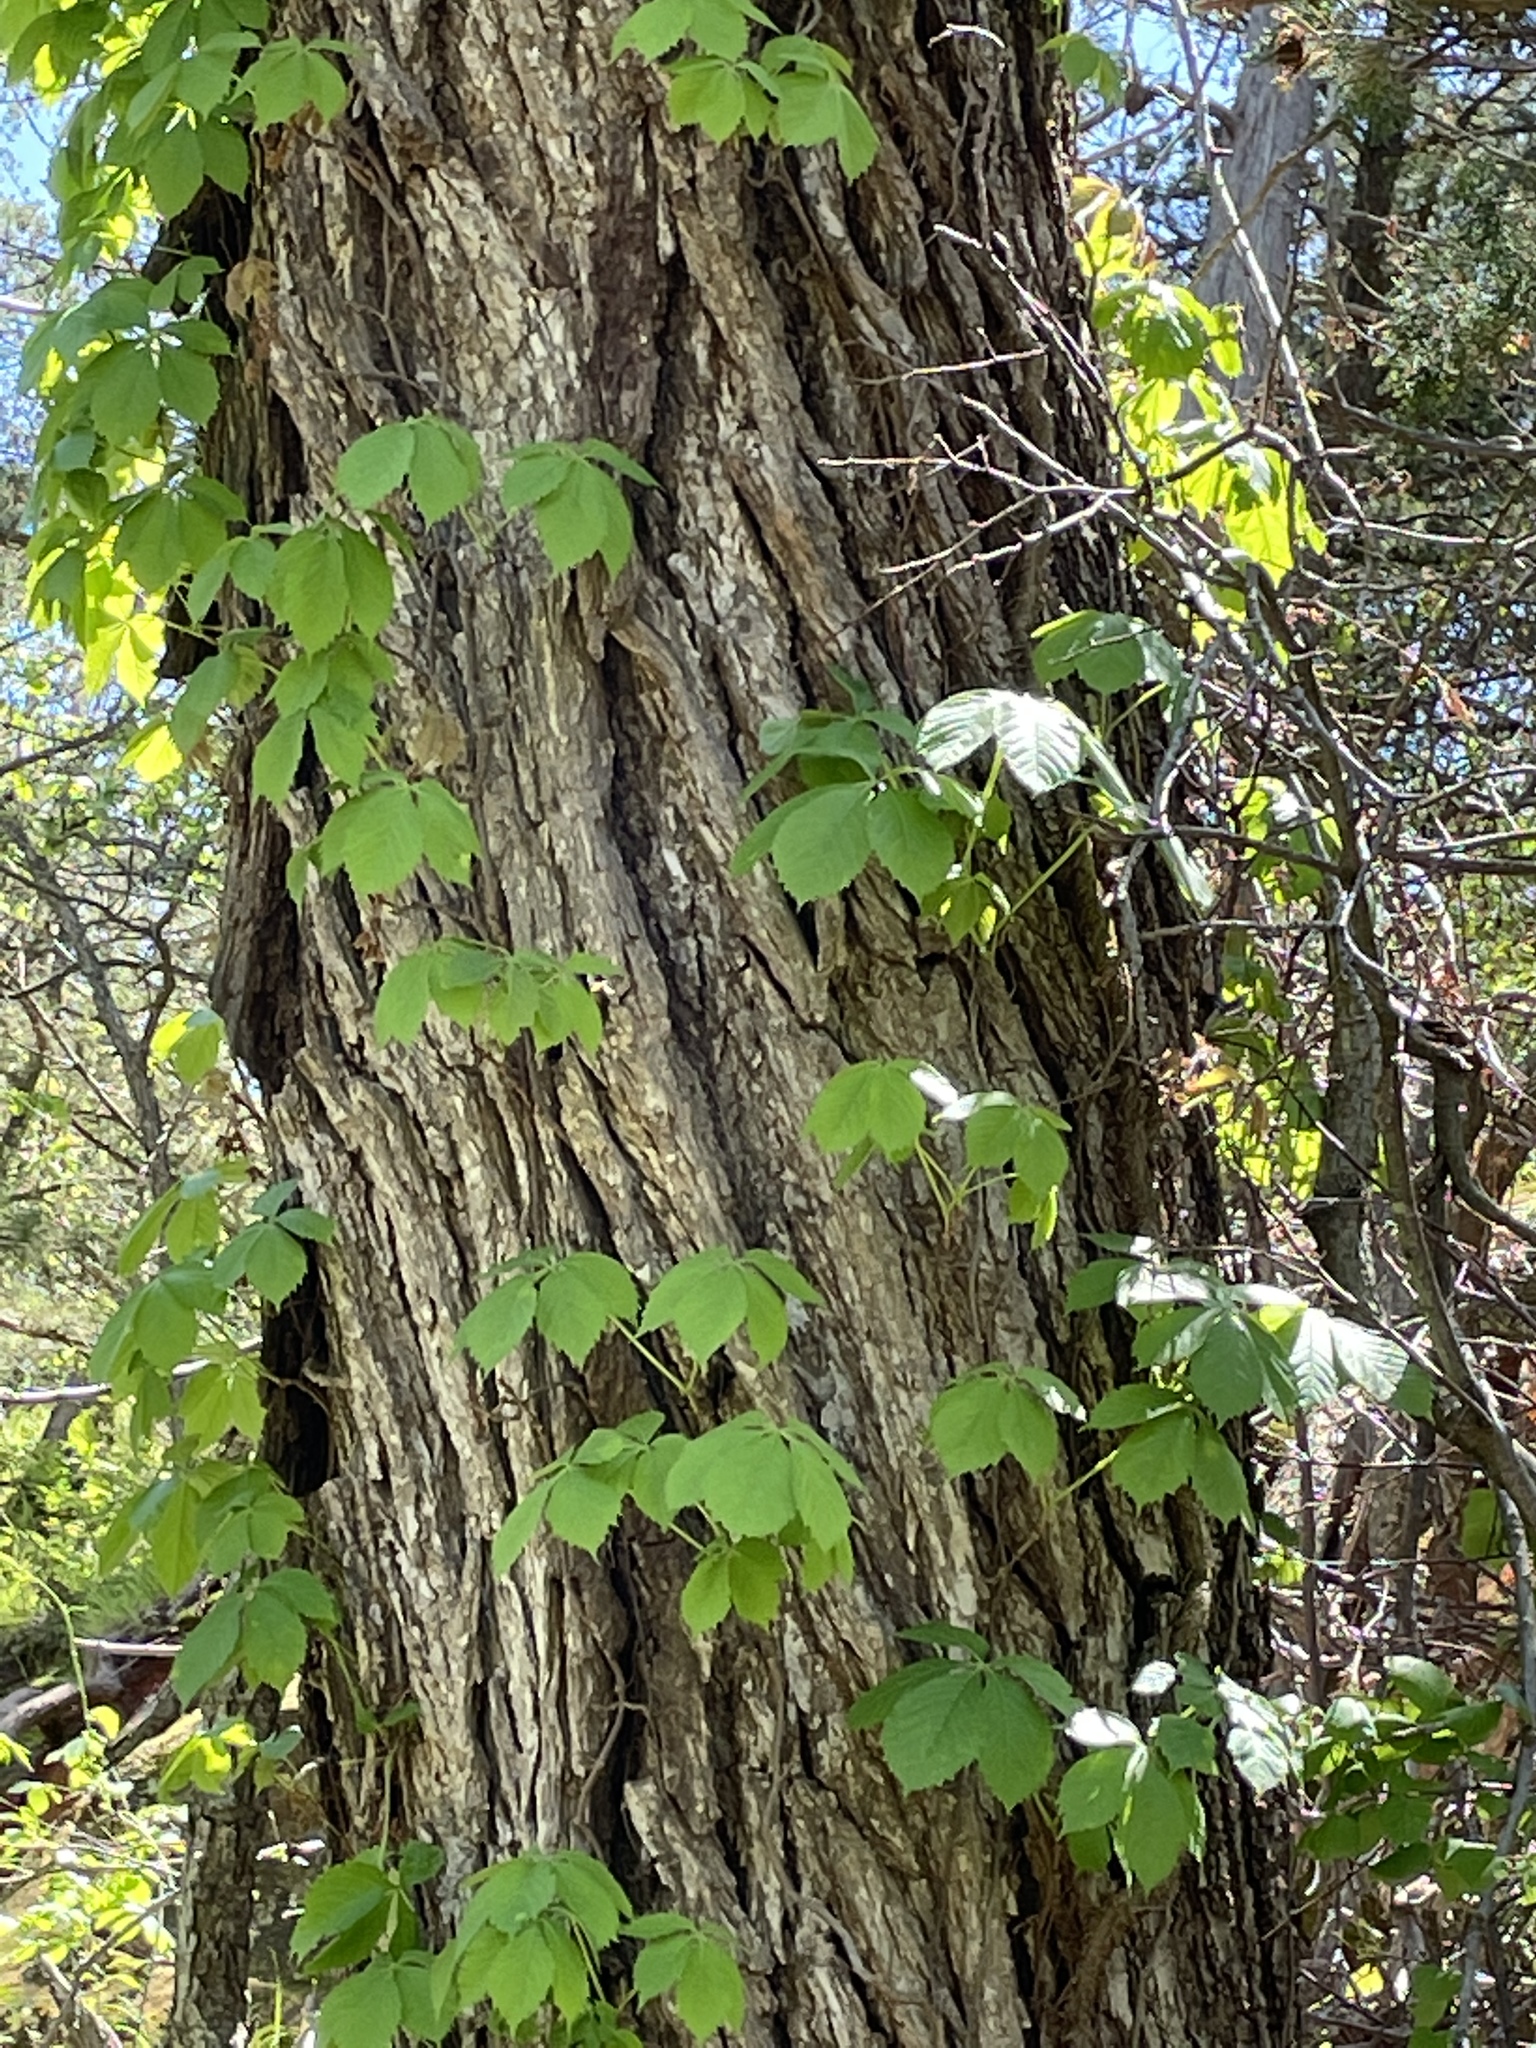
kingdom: Plantae
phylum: Tracheophyta
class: Magnoliopsida
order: Vitales
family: Vitaceae
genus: Parthenocissus
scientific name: Parthenocissus quinquefolia
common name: Virginia-creeper
